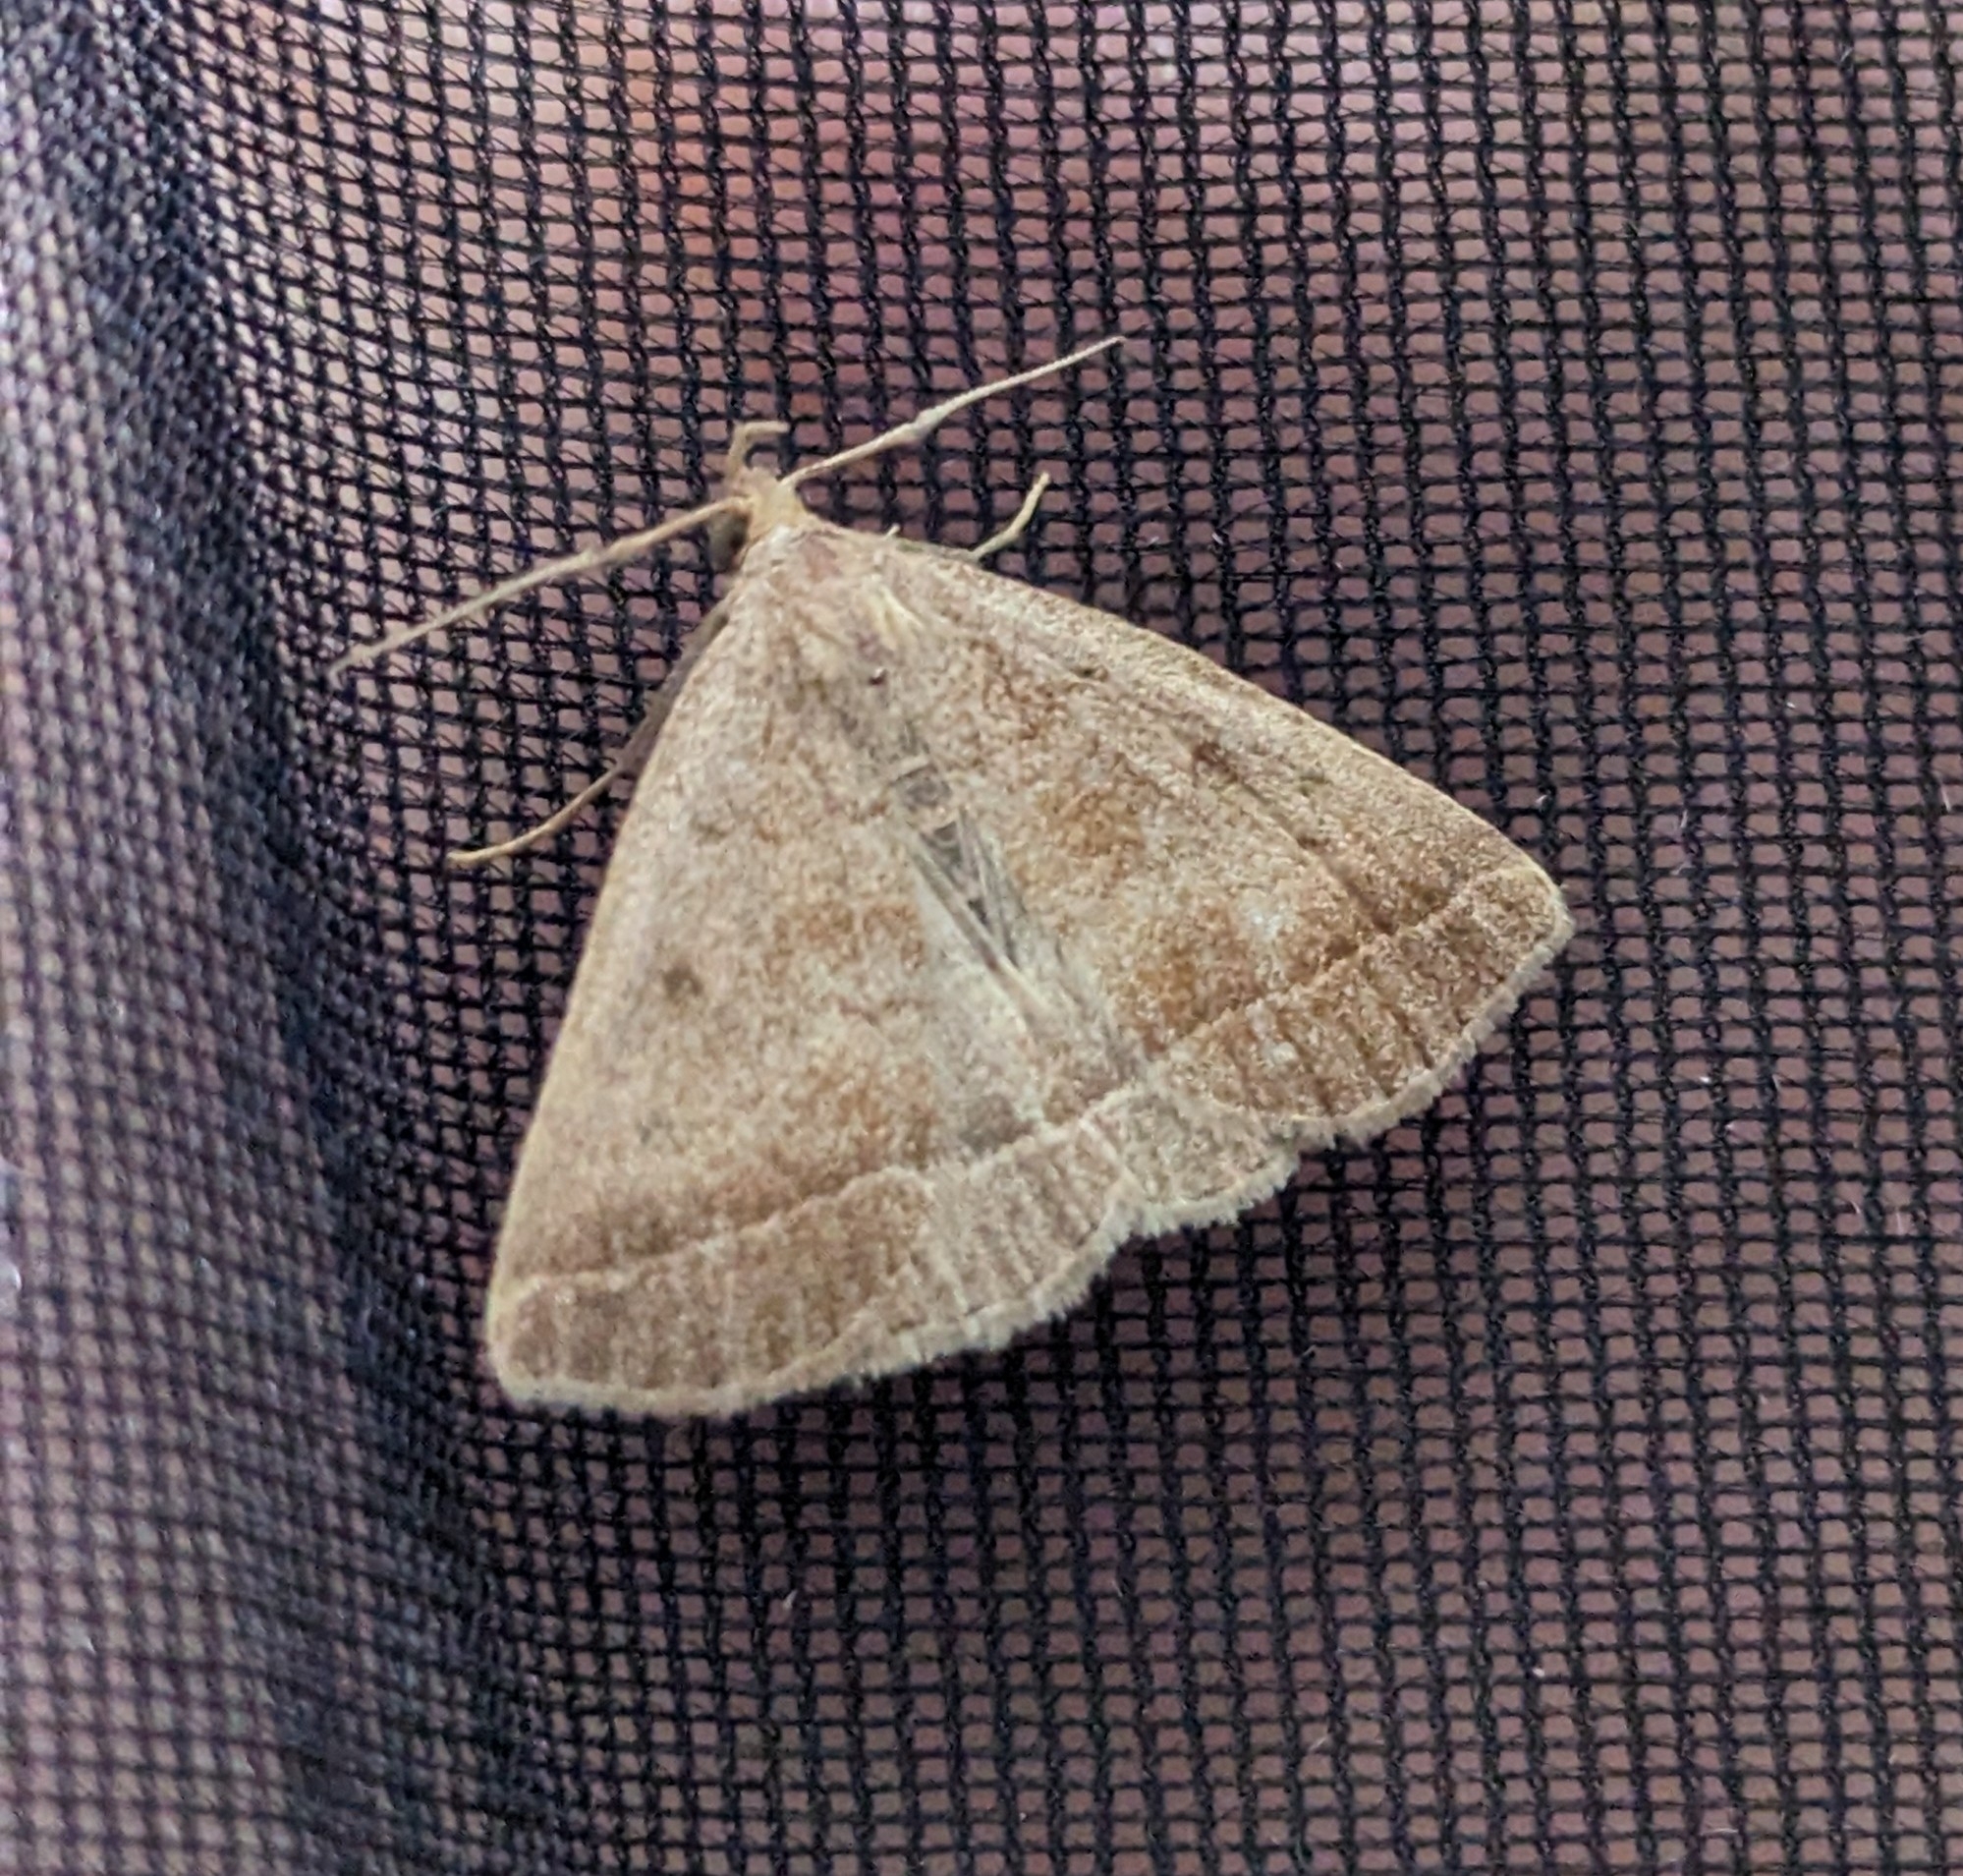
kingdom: Animalia
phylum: Arthropoda
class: Insecta
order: Lepidoptera
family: Erebidae
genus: Zanclognatha
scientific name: Zanclognatha jacchusalis
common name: Yellowish zanclognatha
